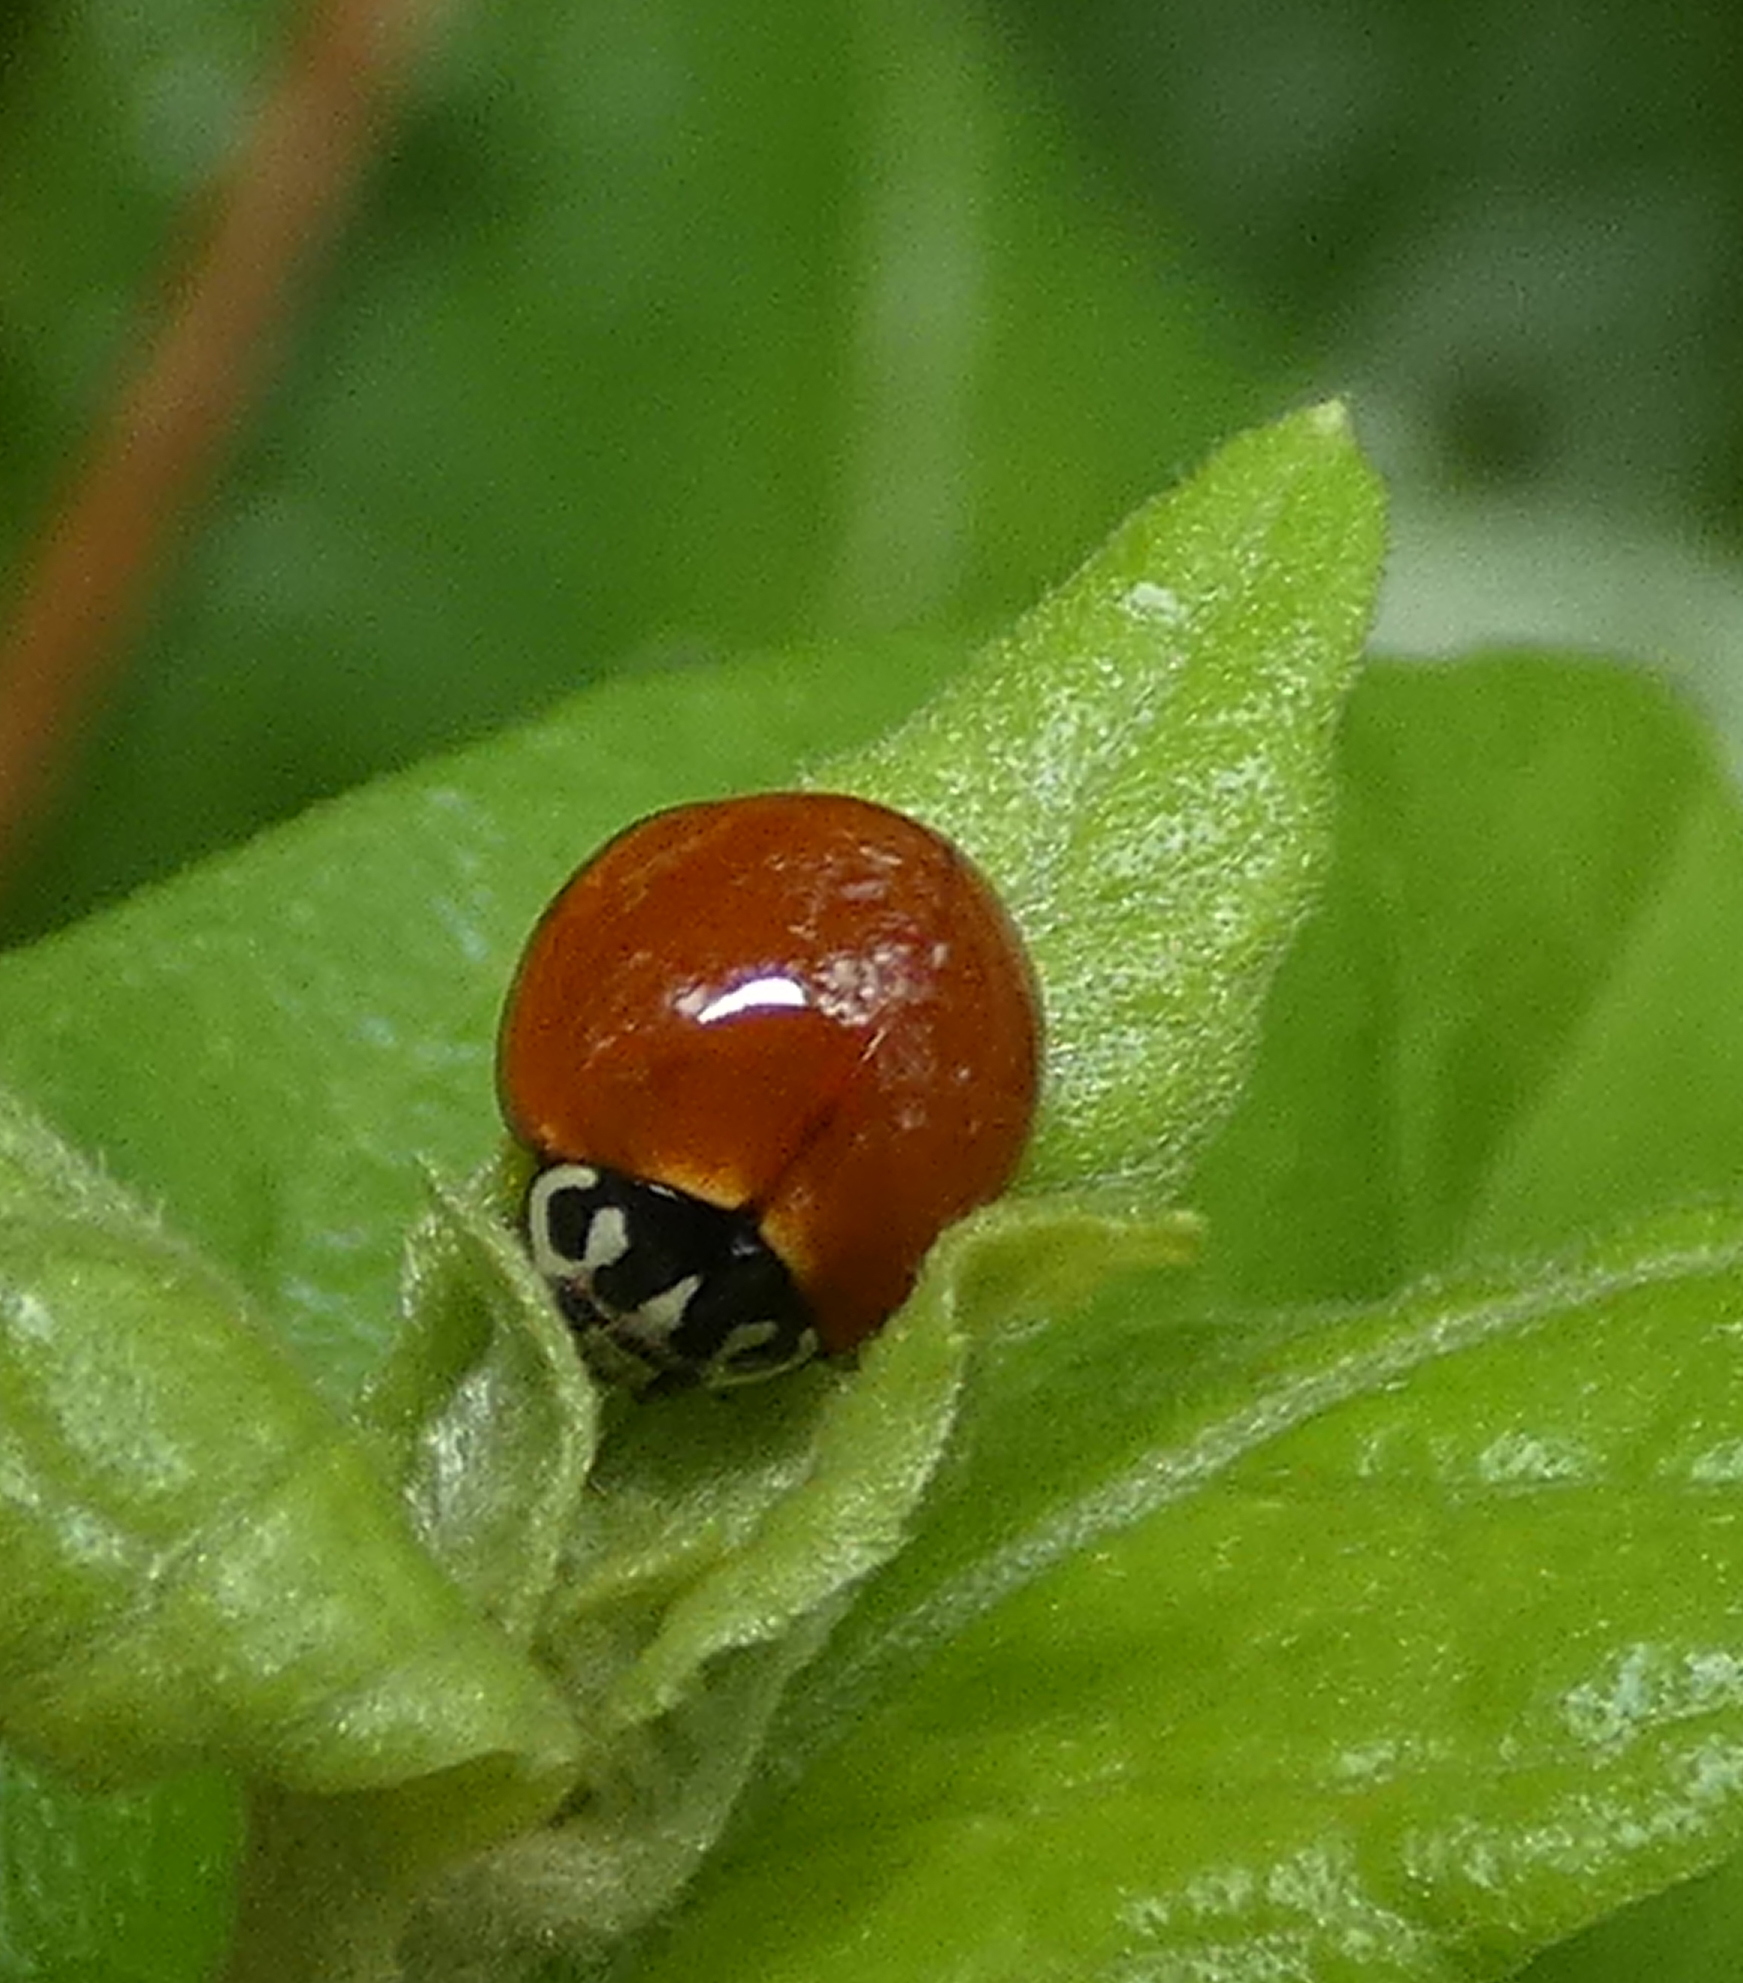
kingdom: Animalia
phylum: Arthropoda
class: Insecta
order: Coleoptera
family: Coccinellidae
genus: Cycloneda
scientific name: Cycloneda sanguinea
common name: Ladybird beetle
